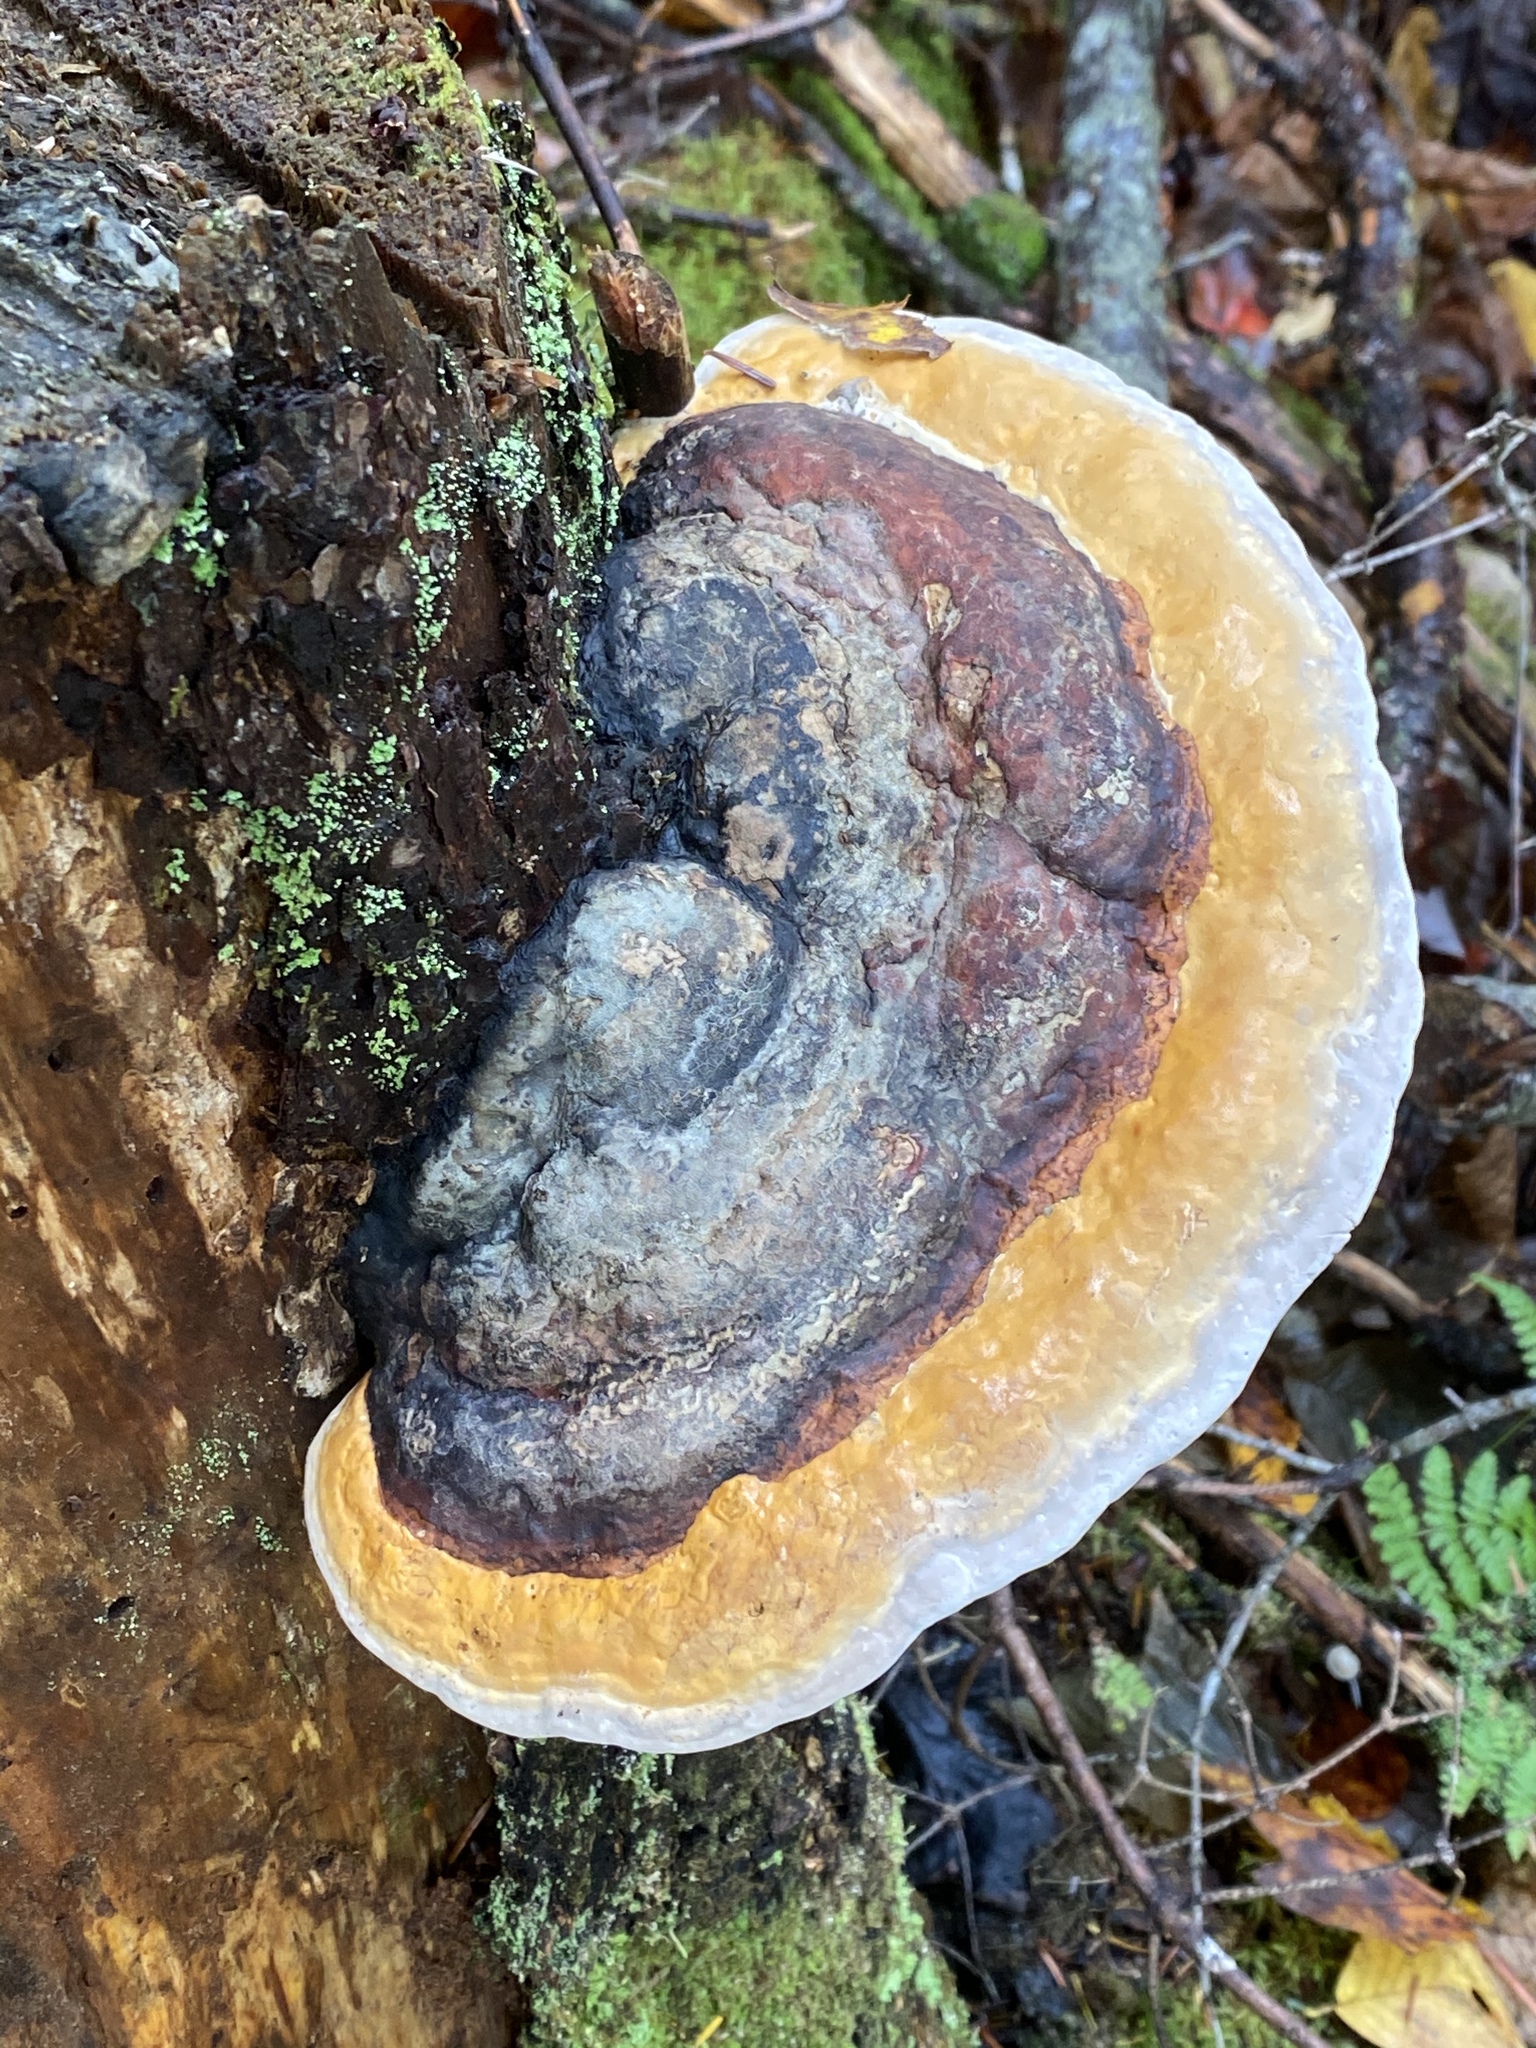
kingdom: Fungi
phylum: Basidiomycota
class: Agaricomycetes
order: Polyporales
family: Fomitopsidaceae
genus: Fomitopsis
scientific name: Fomitopsis mounceae
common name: Northern red belt
